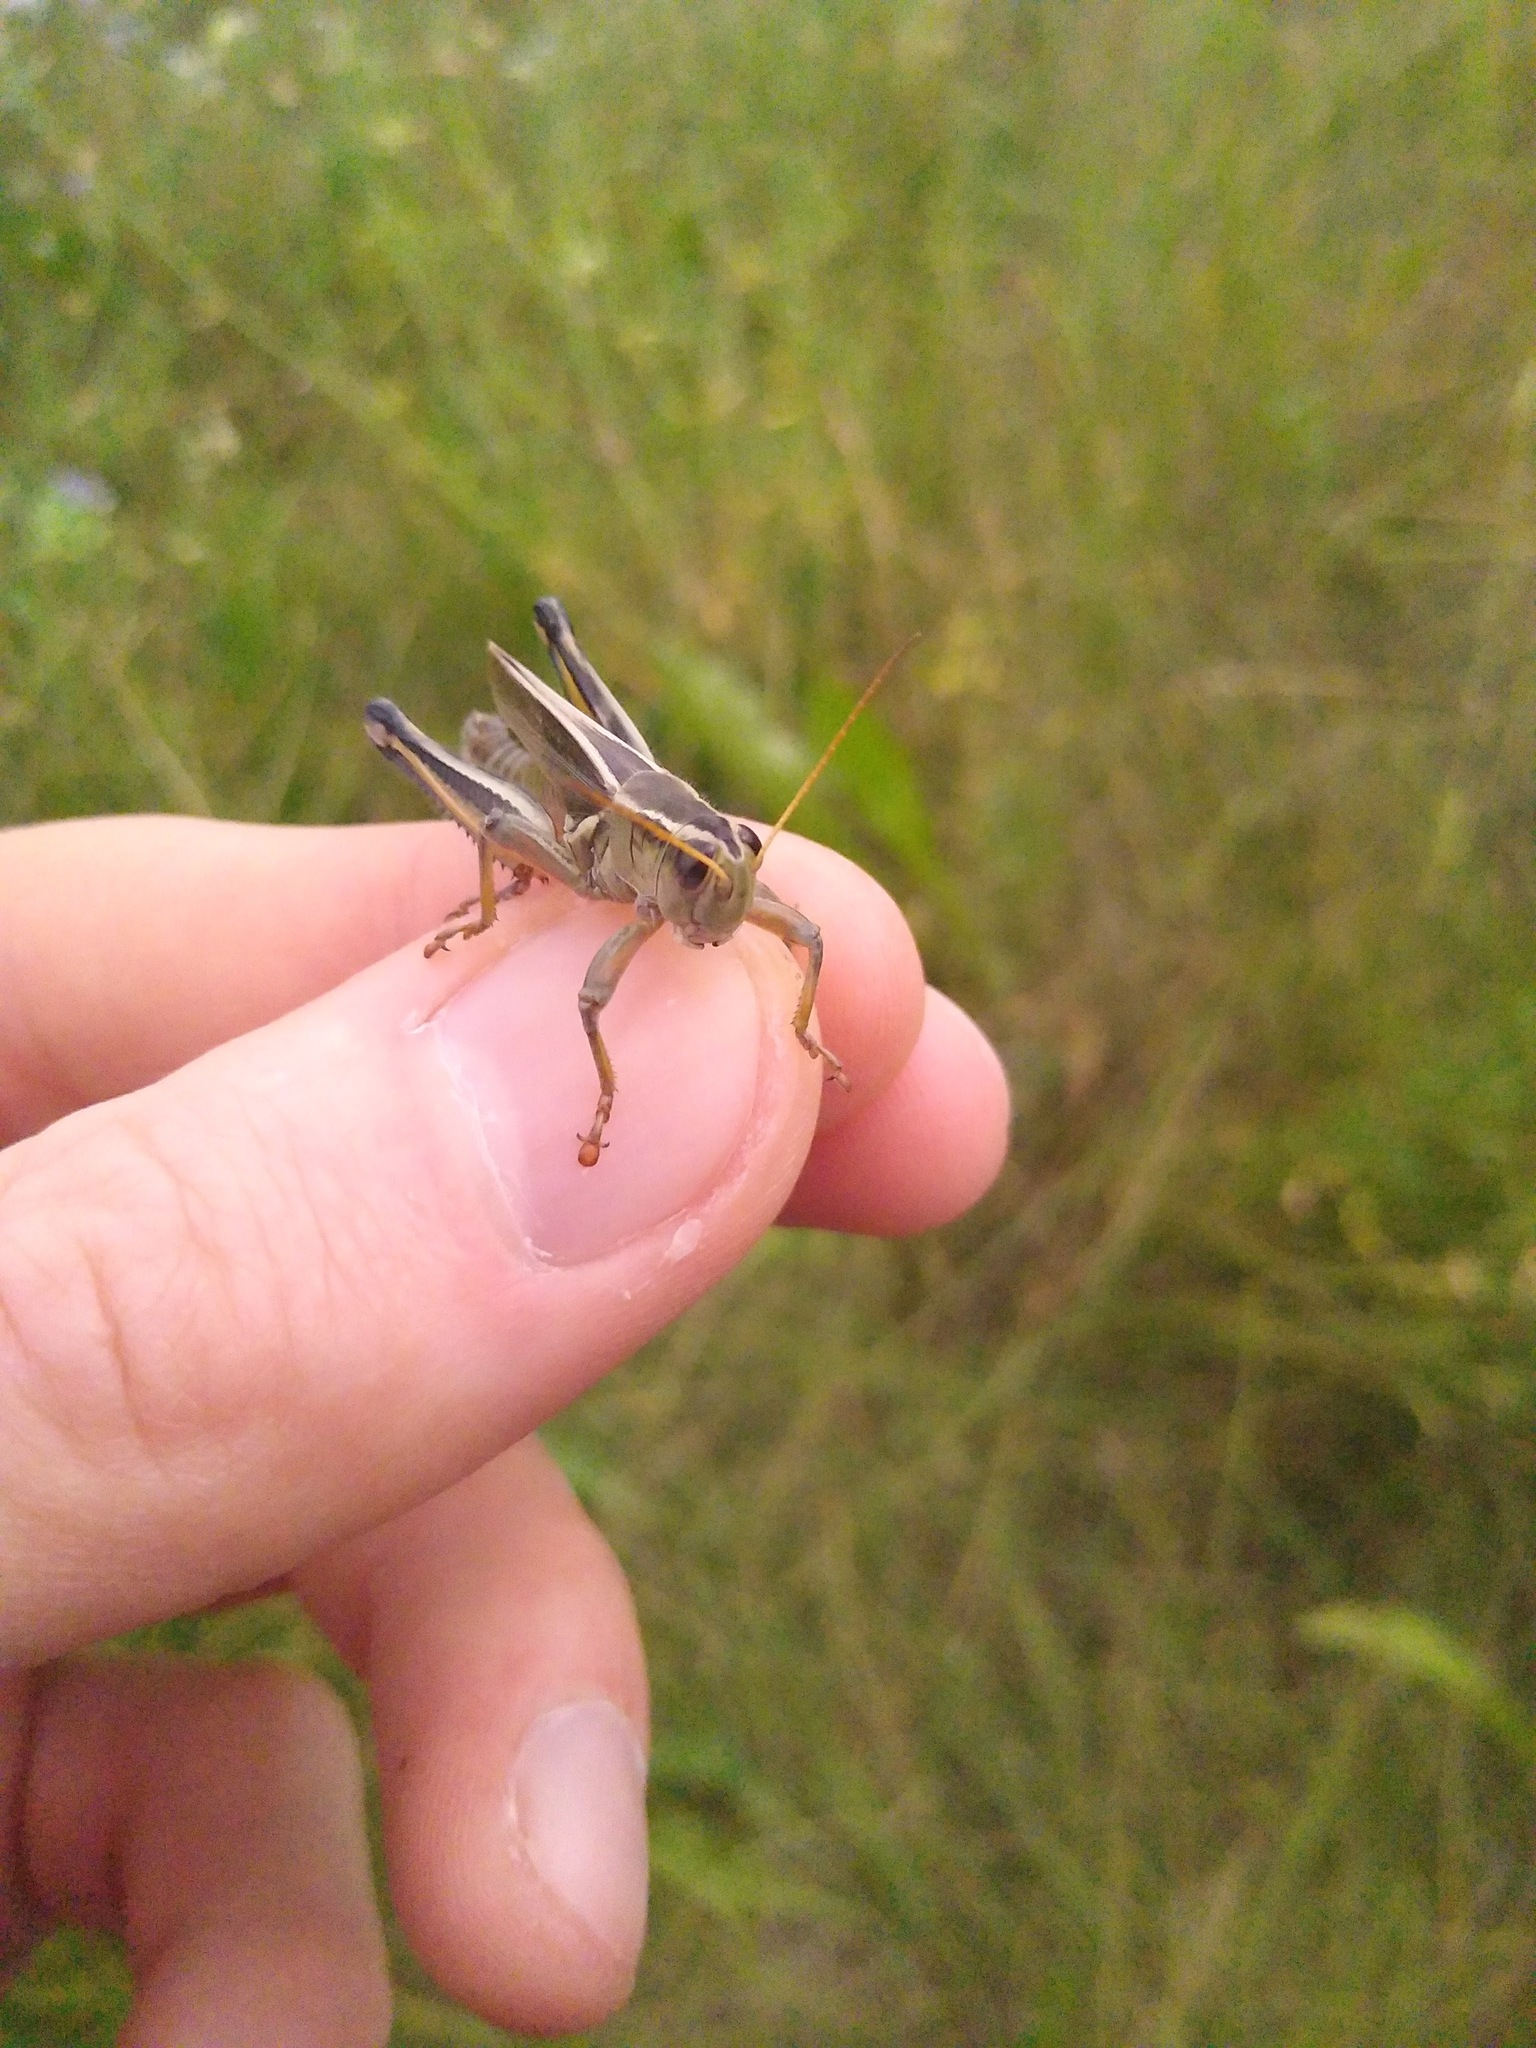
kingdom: Animalia
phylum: Arthropoda
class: Insecta
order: Orthoptera
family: Acrididae
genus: Melanoplus
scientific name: Melanoplus bivittatus
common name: Two-striped grasshopper
